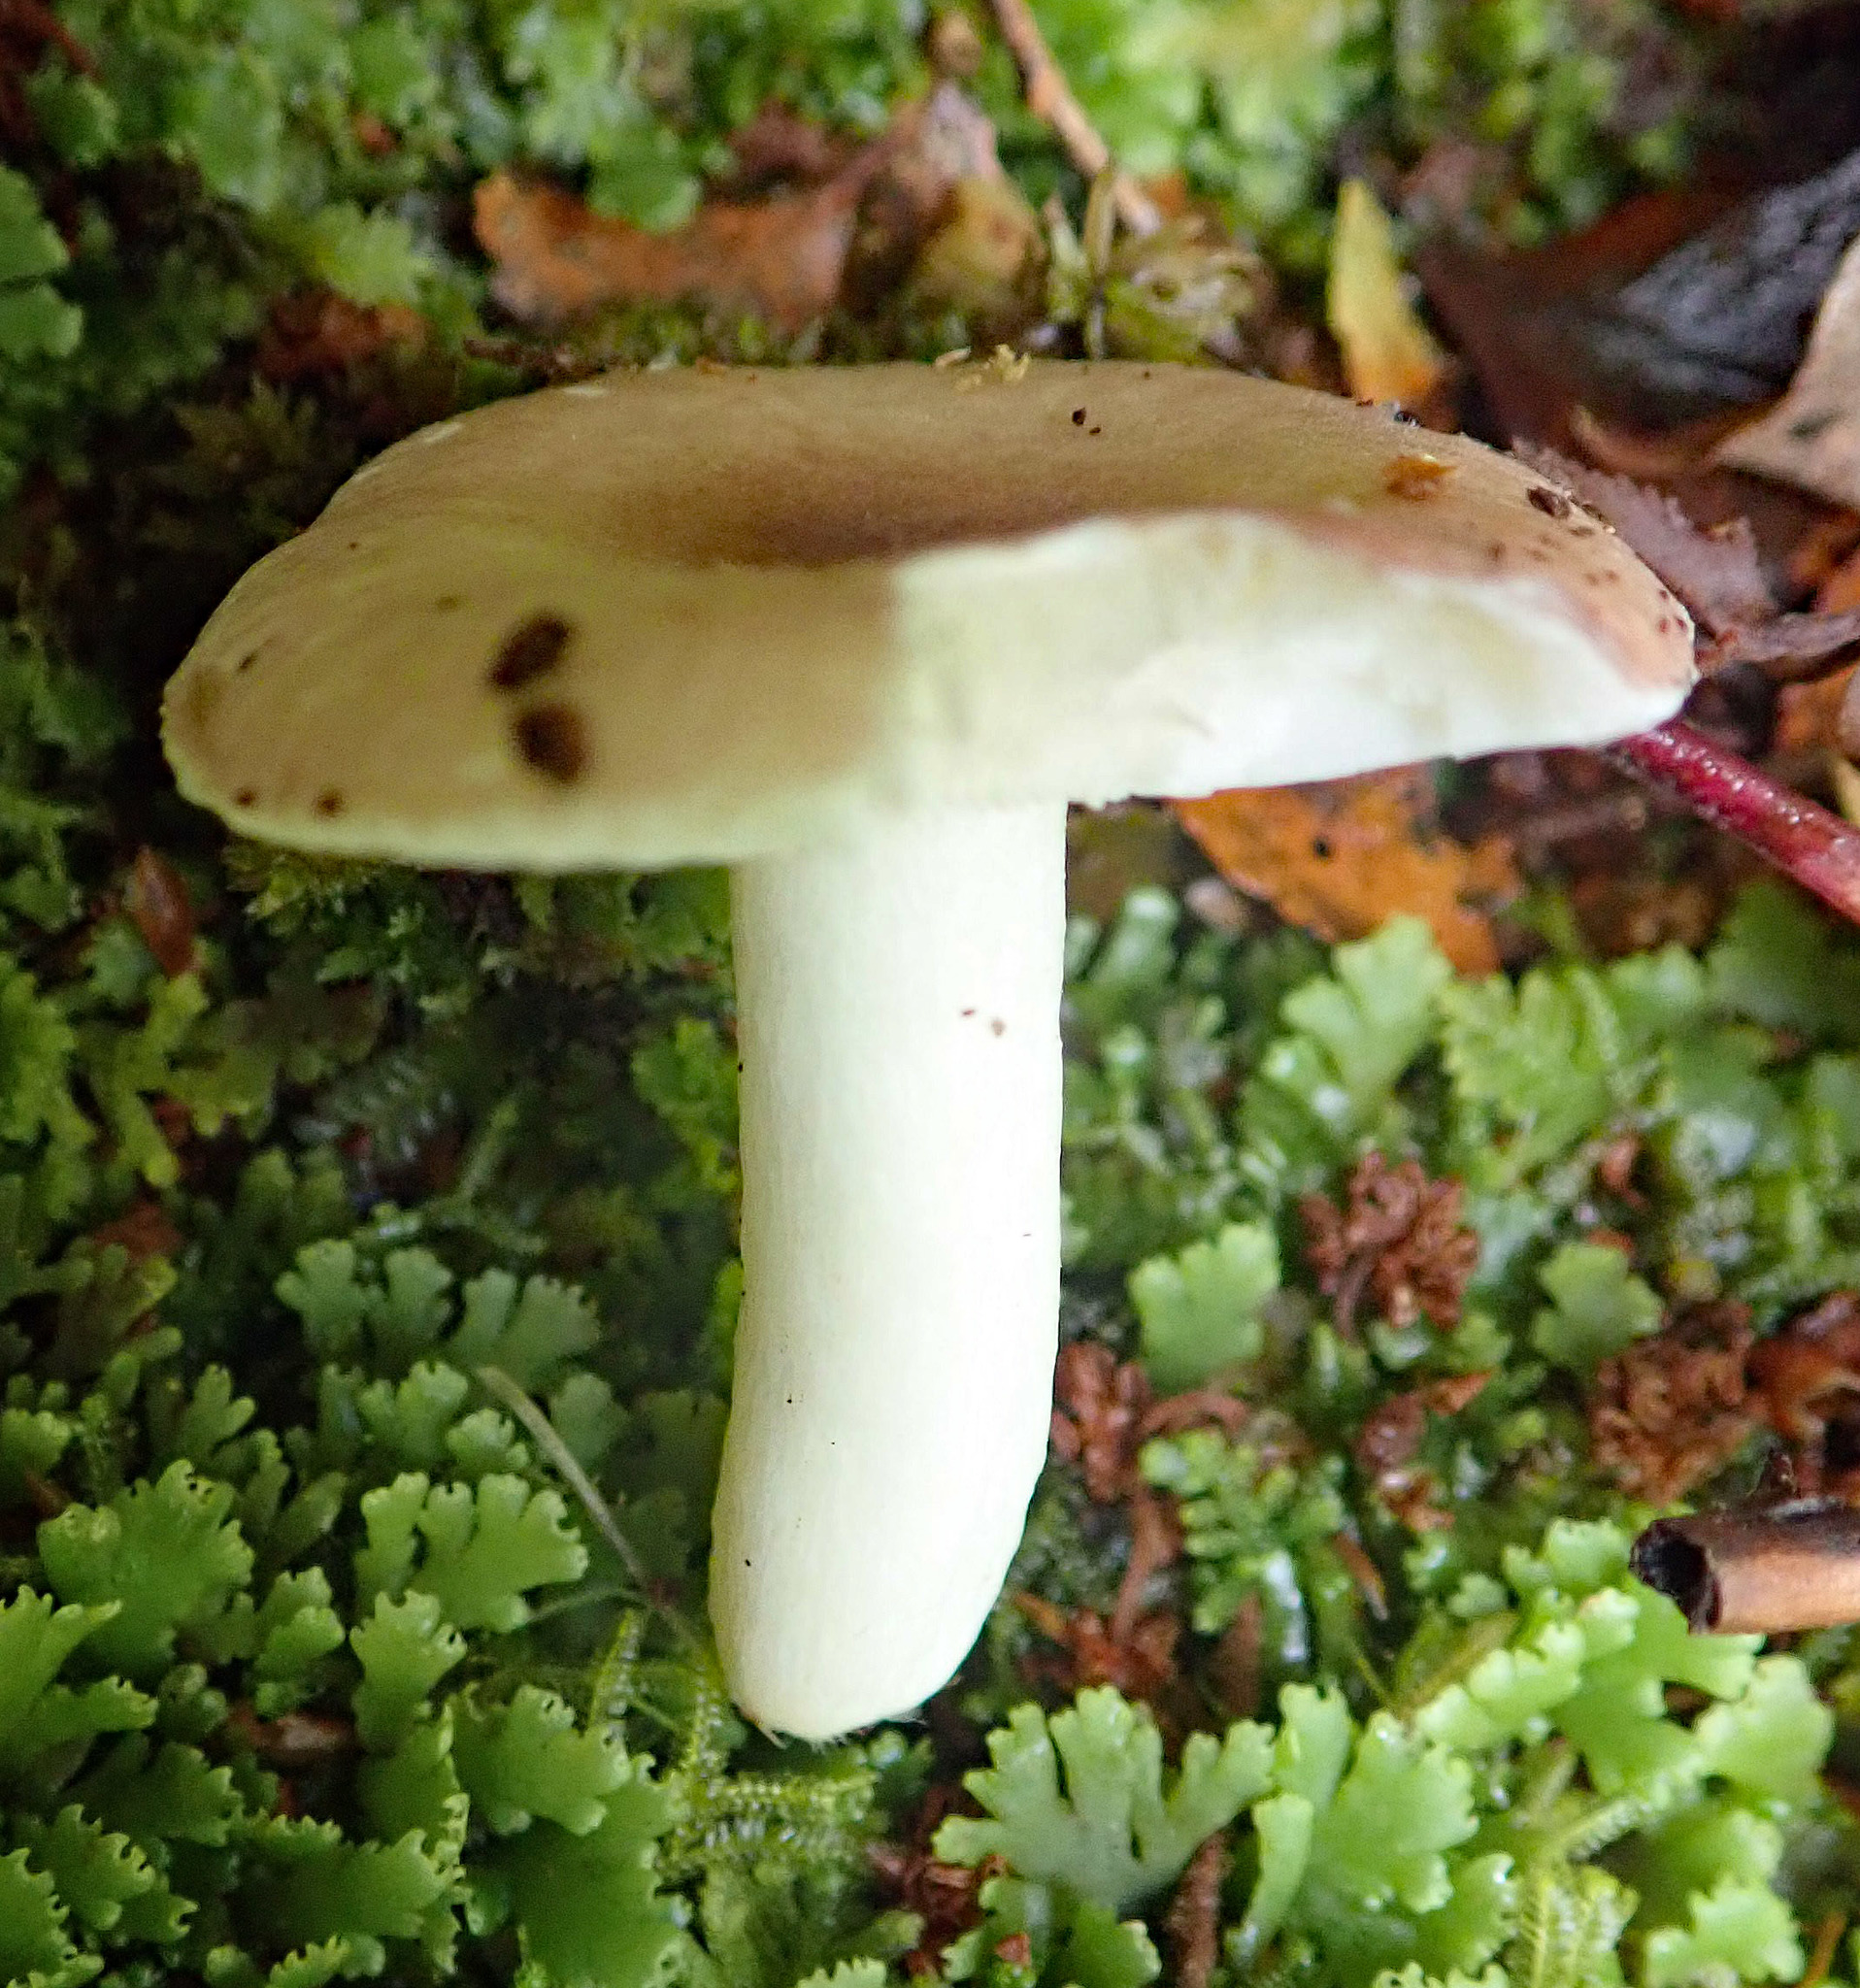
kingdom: Fungi
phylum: Basidiomycota
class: Agaricomycetes
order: Russulales
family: Russulaceae
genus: Russula
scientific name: Russula roseopileata
